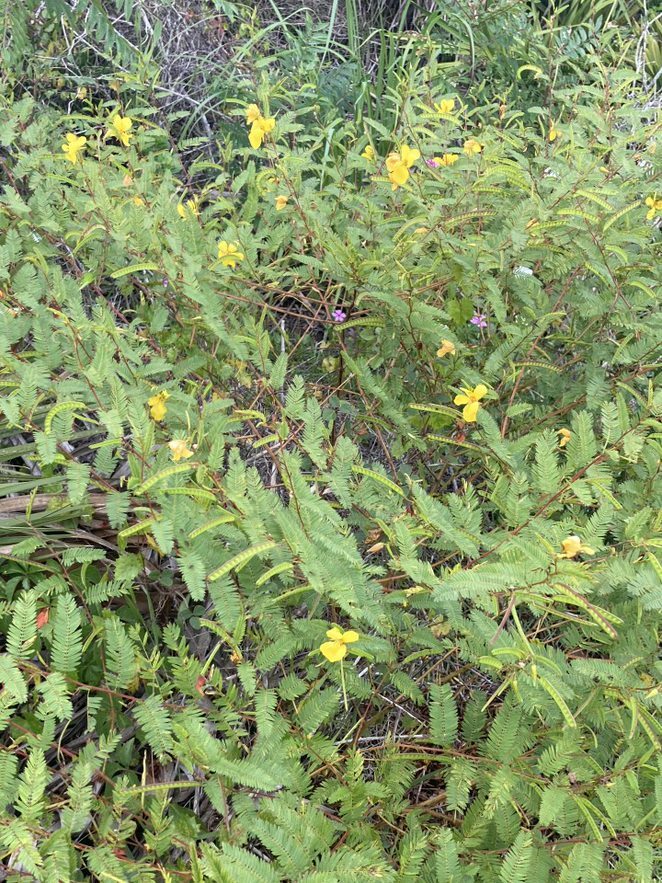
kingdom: Plantae
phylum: Tracheophyta
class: Magnoliopsida
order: Fabales
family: Fabaceae
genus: Chamaecrista
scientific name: Chamaecrista fasciculata
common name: Golden cassia
